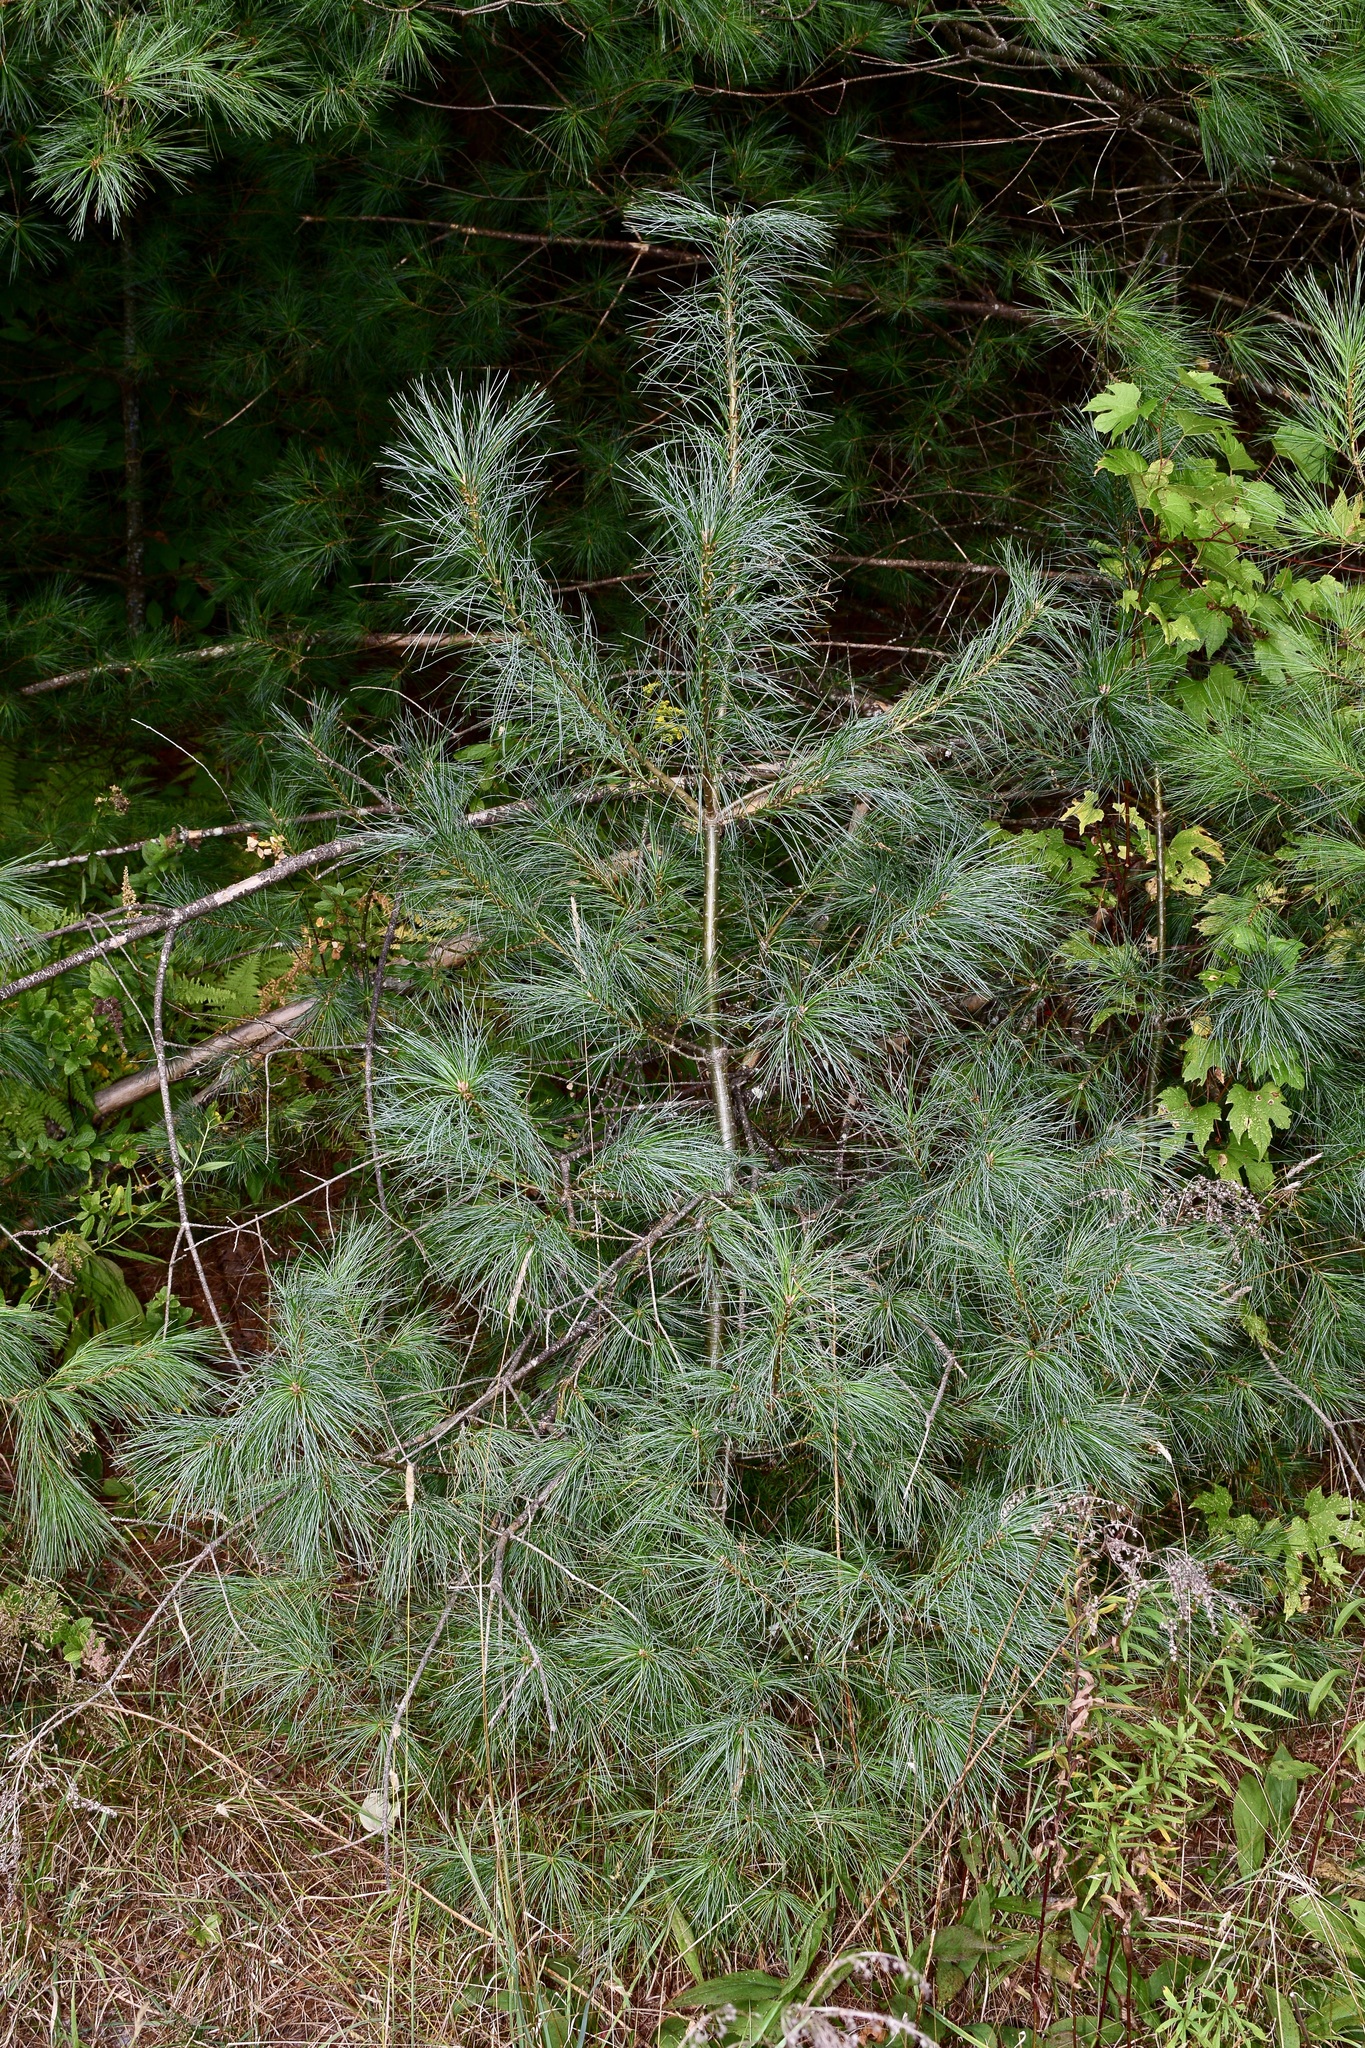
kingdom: Plantae
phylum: Tracheophyta
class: Pinopsida
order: Pinales
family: Pinaceae
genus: Pinus
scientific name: Pinus strobus
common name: Weymouth pine
